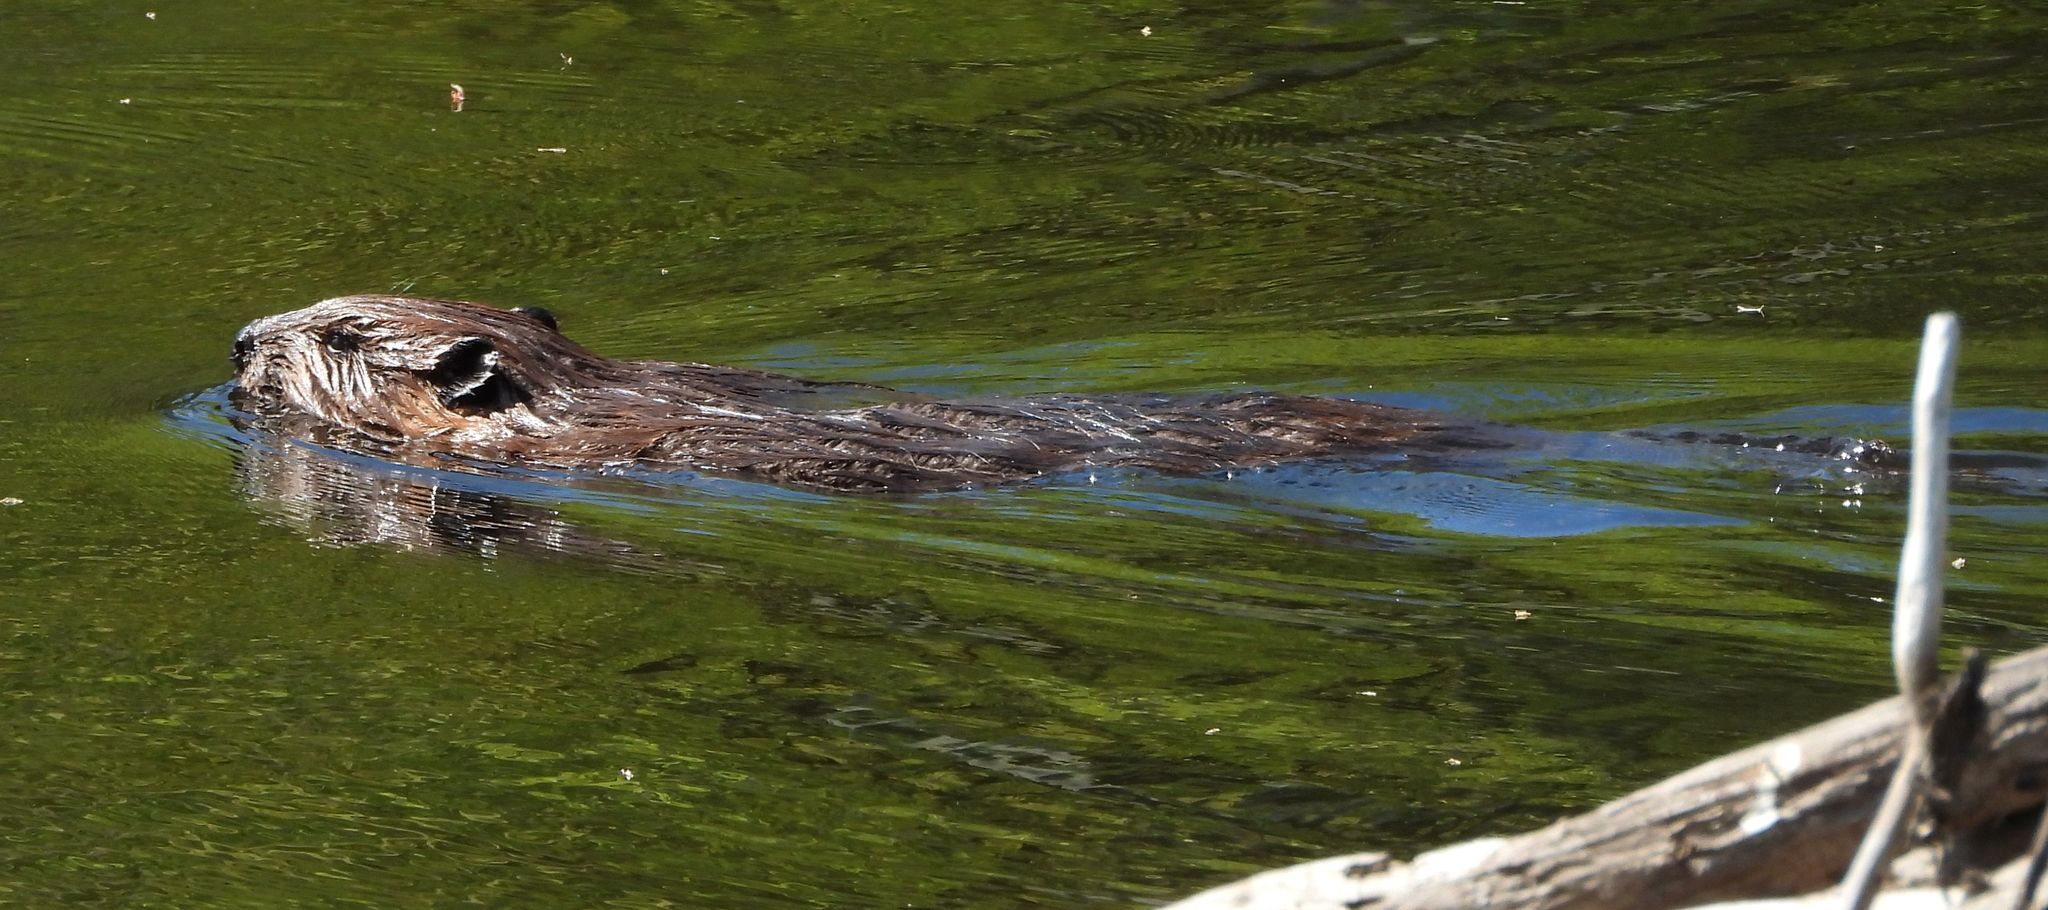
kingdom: Animalia
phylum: Chordata
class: Mammalia
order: Rodentia
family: Castoridae
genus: Castor
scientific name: Castor canadensis
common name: American beaver
